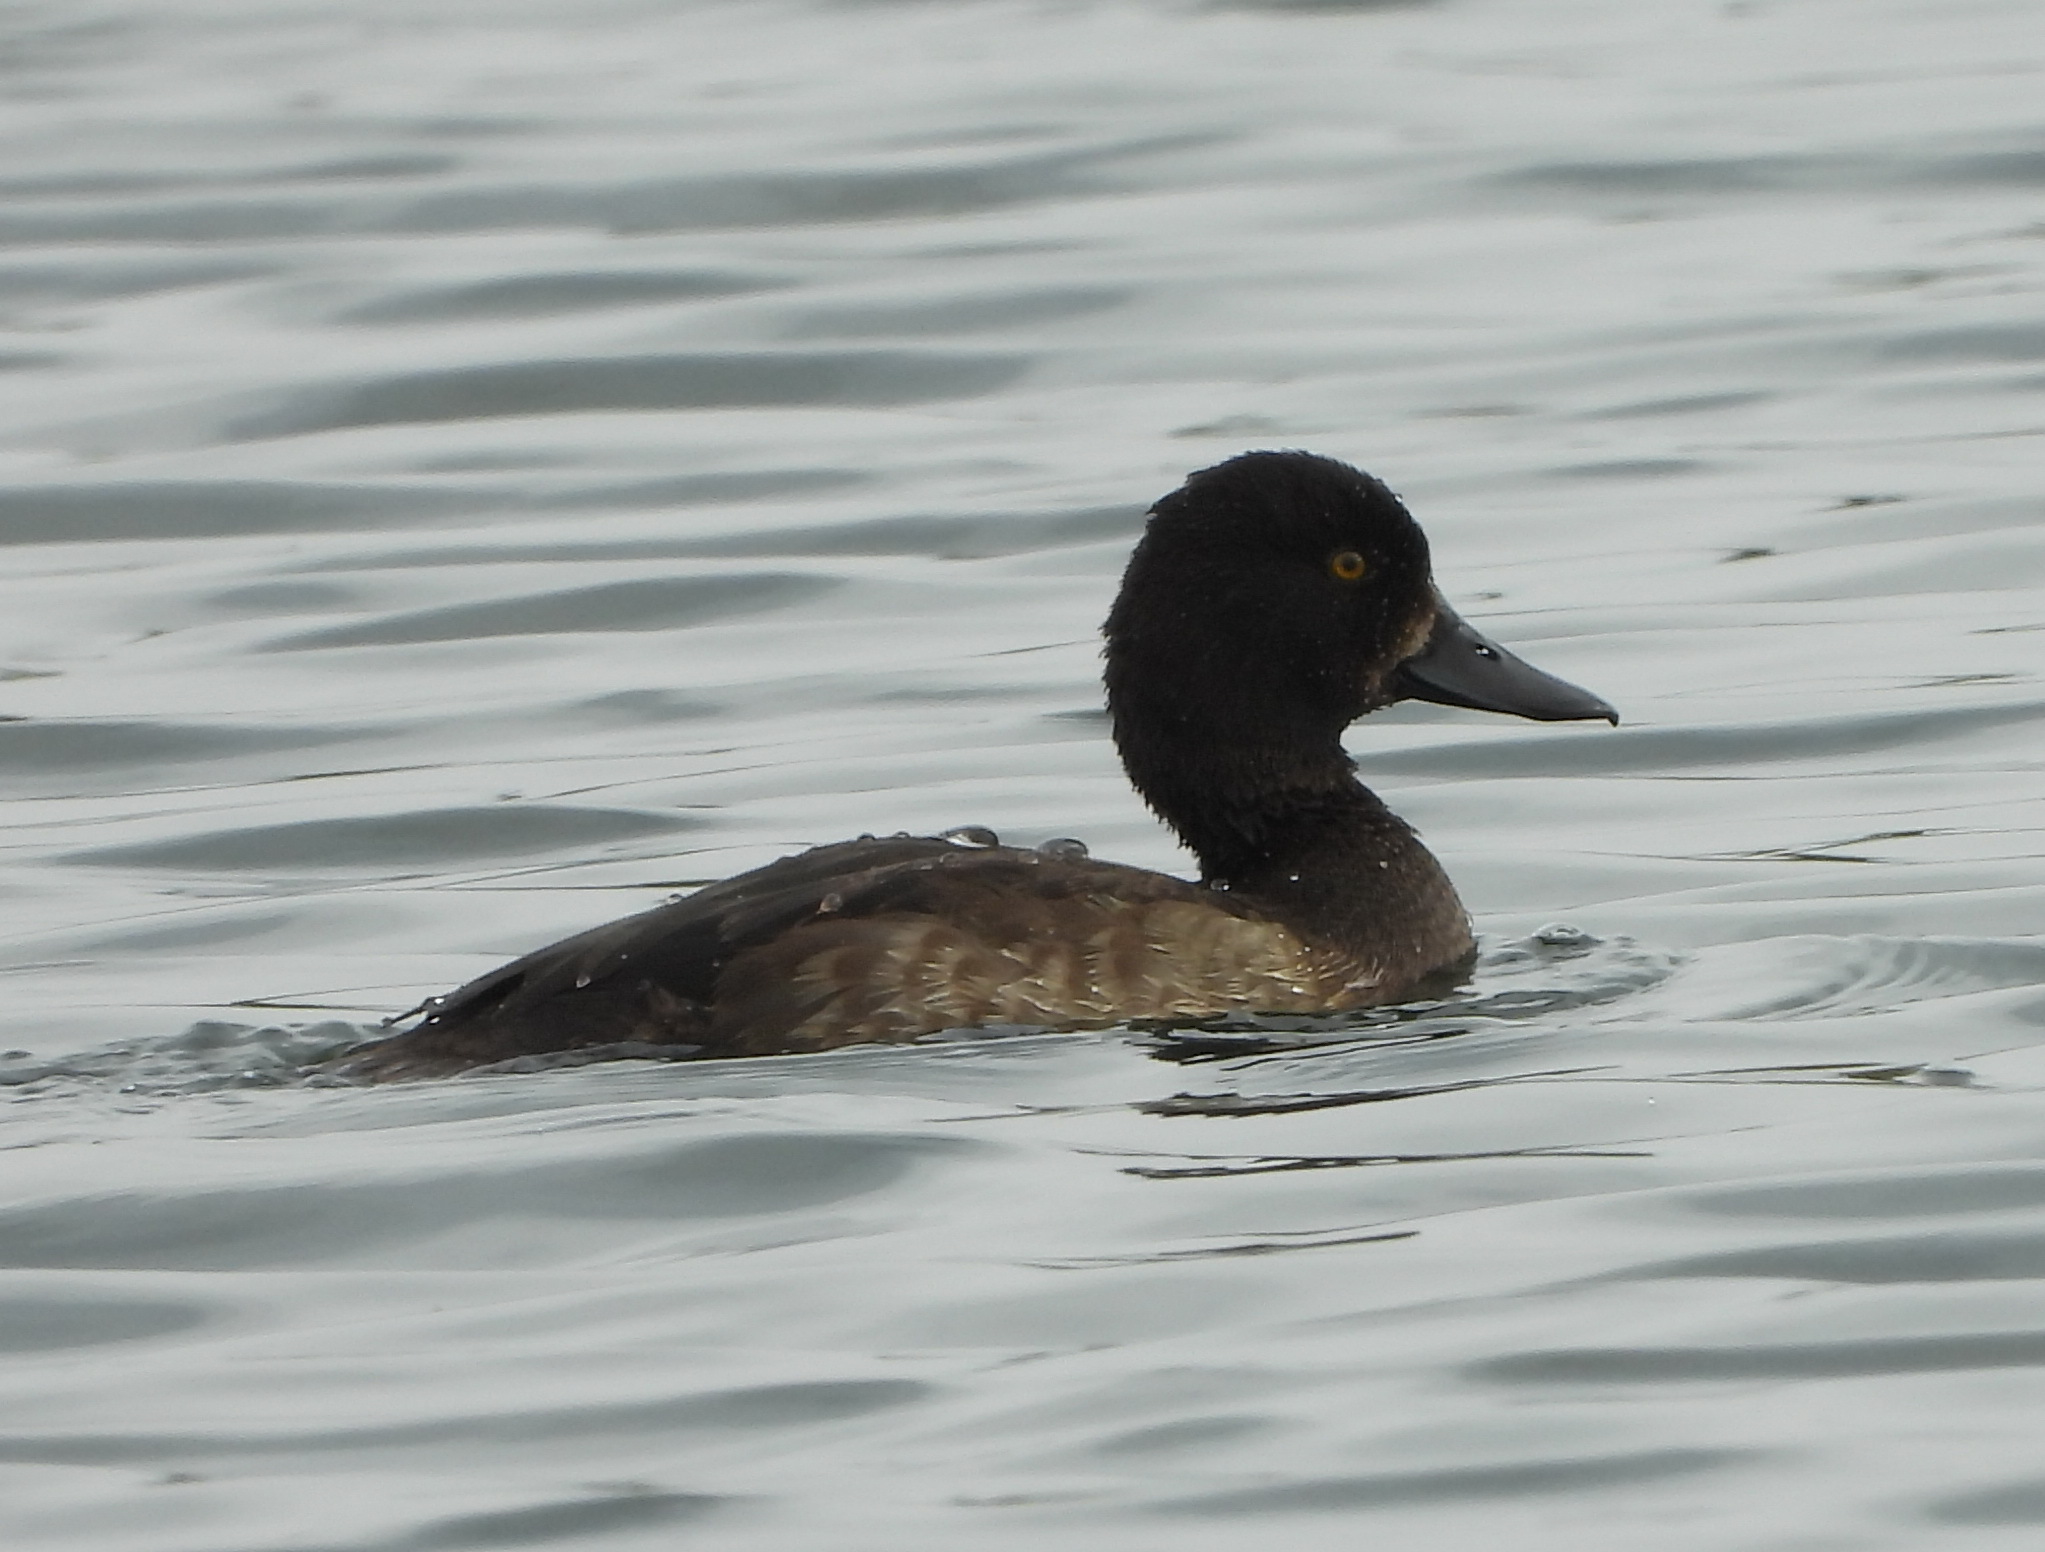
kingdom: Animalia
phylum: Chordata
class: Aves
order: Anseriformes
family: Anatidae
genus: Aythya
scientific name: Aythya fuligula
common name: Tufted duck
